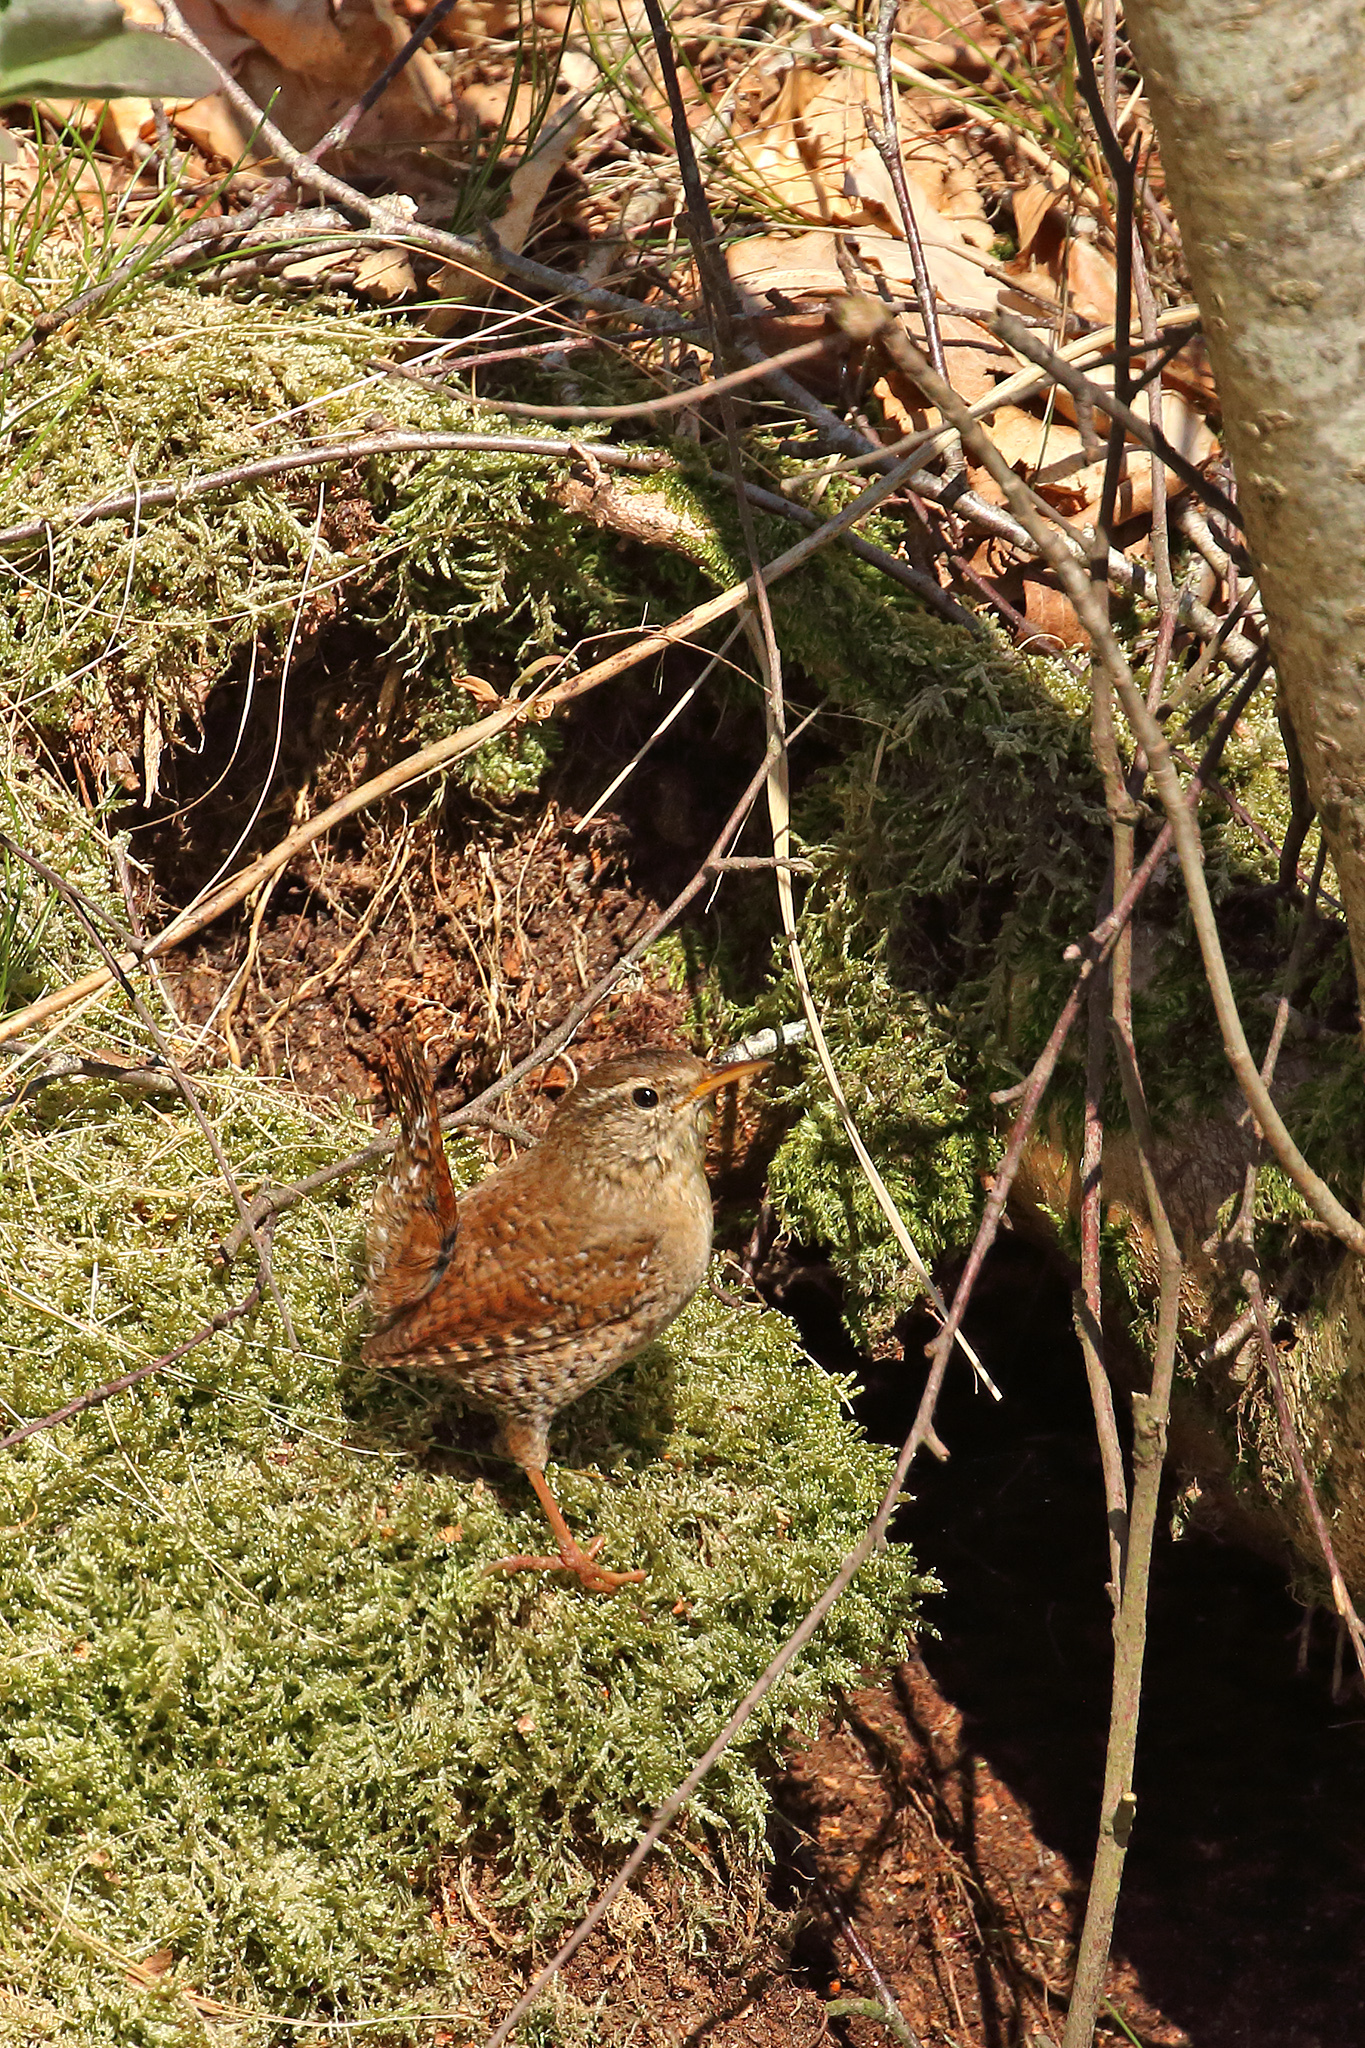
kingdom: Animalia
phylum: Chordata
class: Aves
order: Passeriformes
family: Troglodytidae
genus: Troglodytes
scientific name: Troglodytes troglodytes
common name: Eurasian wren
